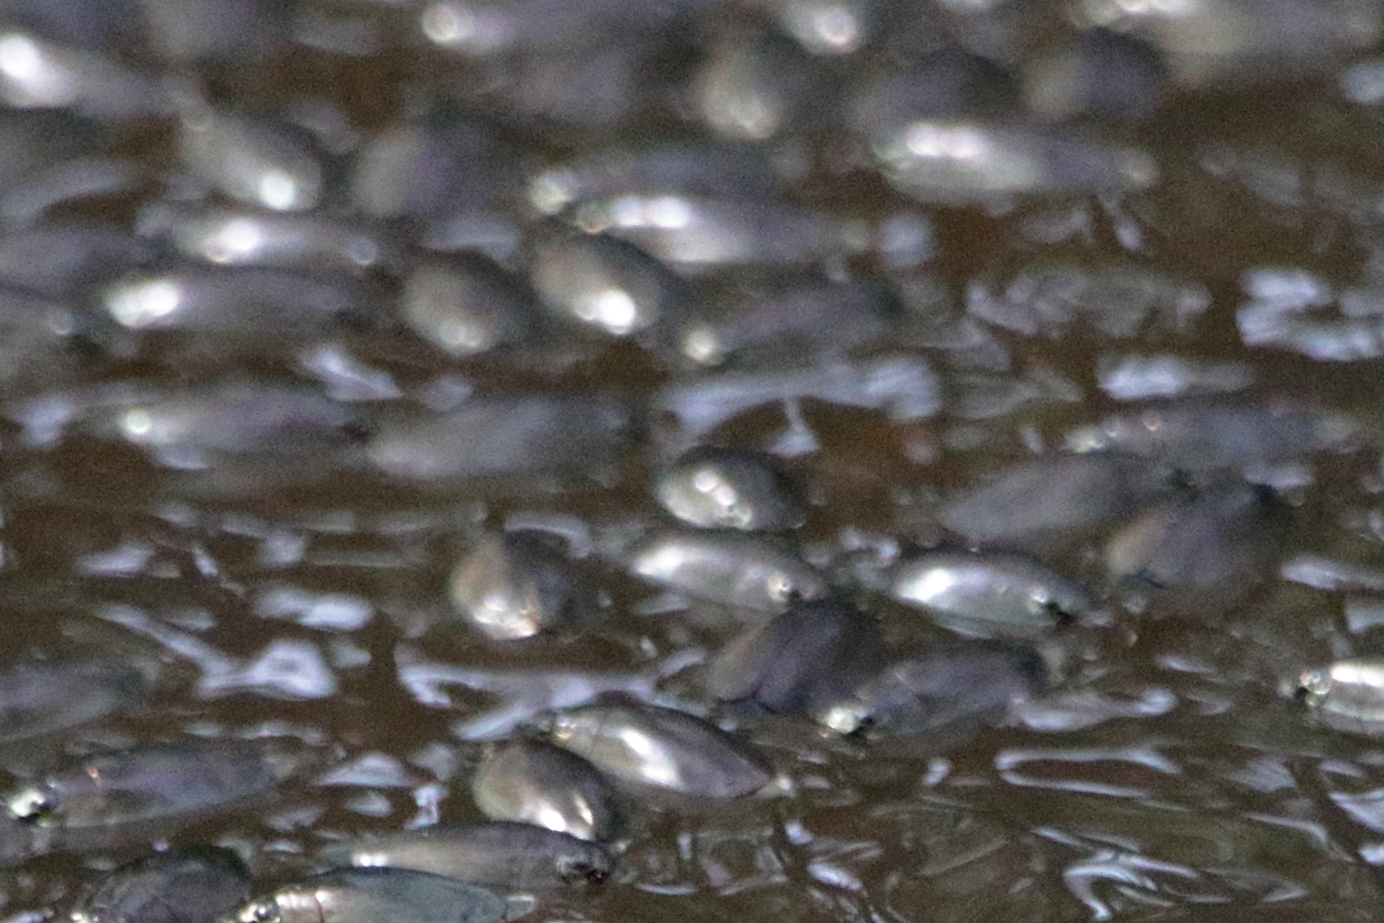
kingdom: Animalia
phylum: Arthropoda
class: Insecta
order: Coleoptera
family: Gyrinidae
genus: Dineutus
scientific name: Dineutus
